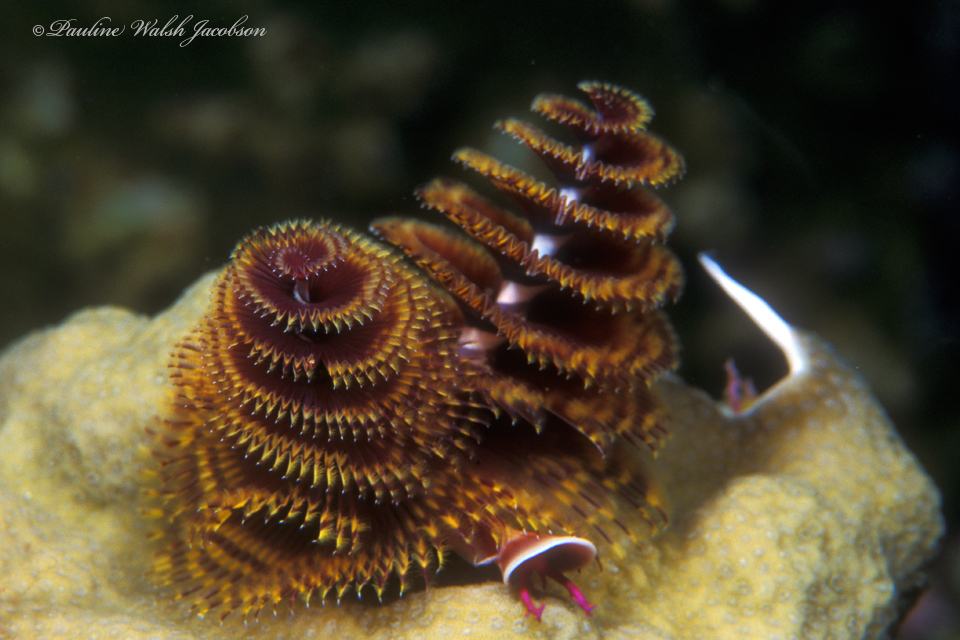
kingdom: Animalia
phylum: Annelida
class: Polychaeta
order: Sabellida
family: Serpulidae
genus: Spirobranchus
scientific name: Spirobranchus giganteus
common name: Christmas tree worm
